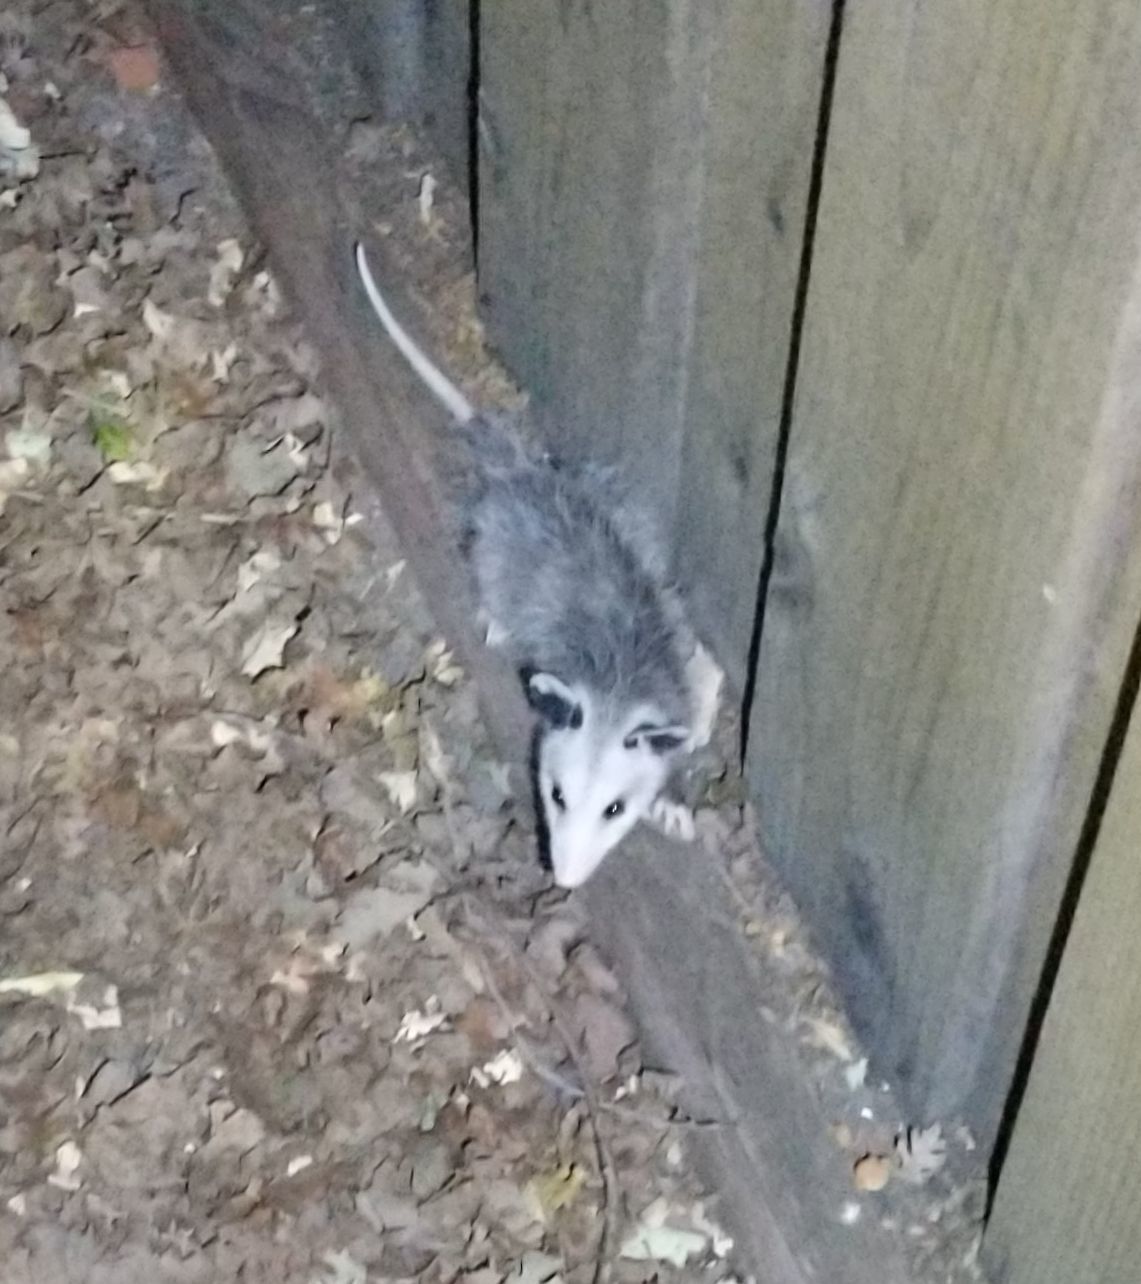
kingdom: Animalia
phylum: Chordata
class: Mammalia
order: Didelphimorphia
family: Didelphidae
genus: Didelphis
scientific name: Didelphis virginiana
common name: Virginia opossum
